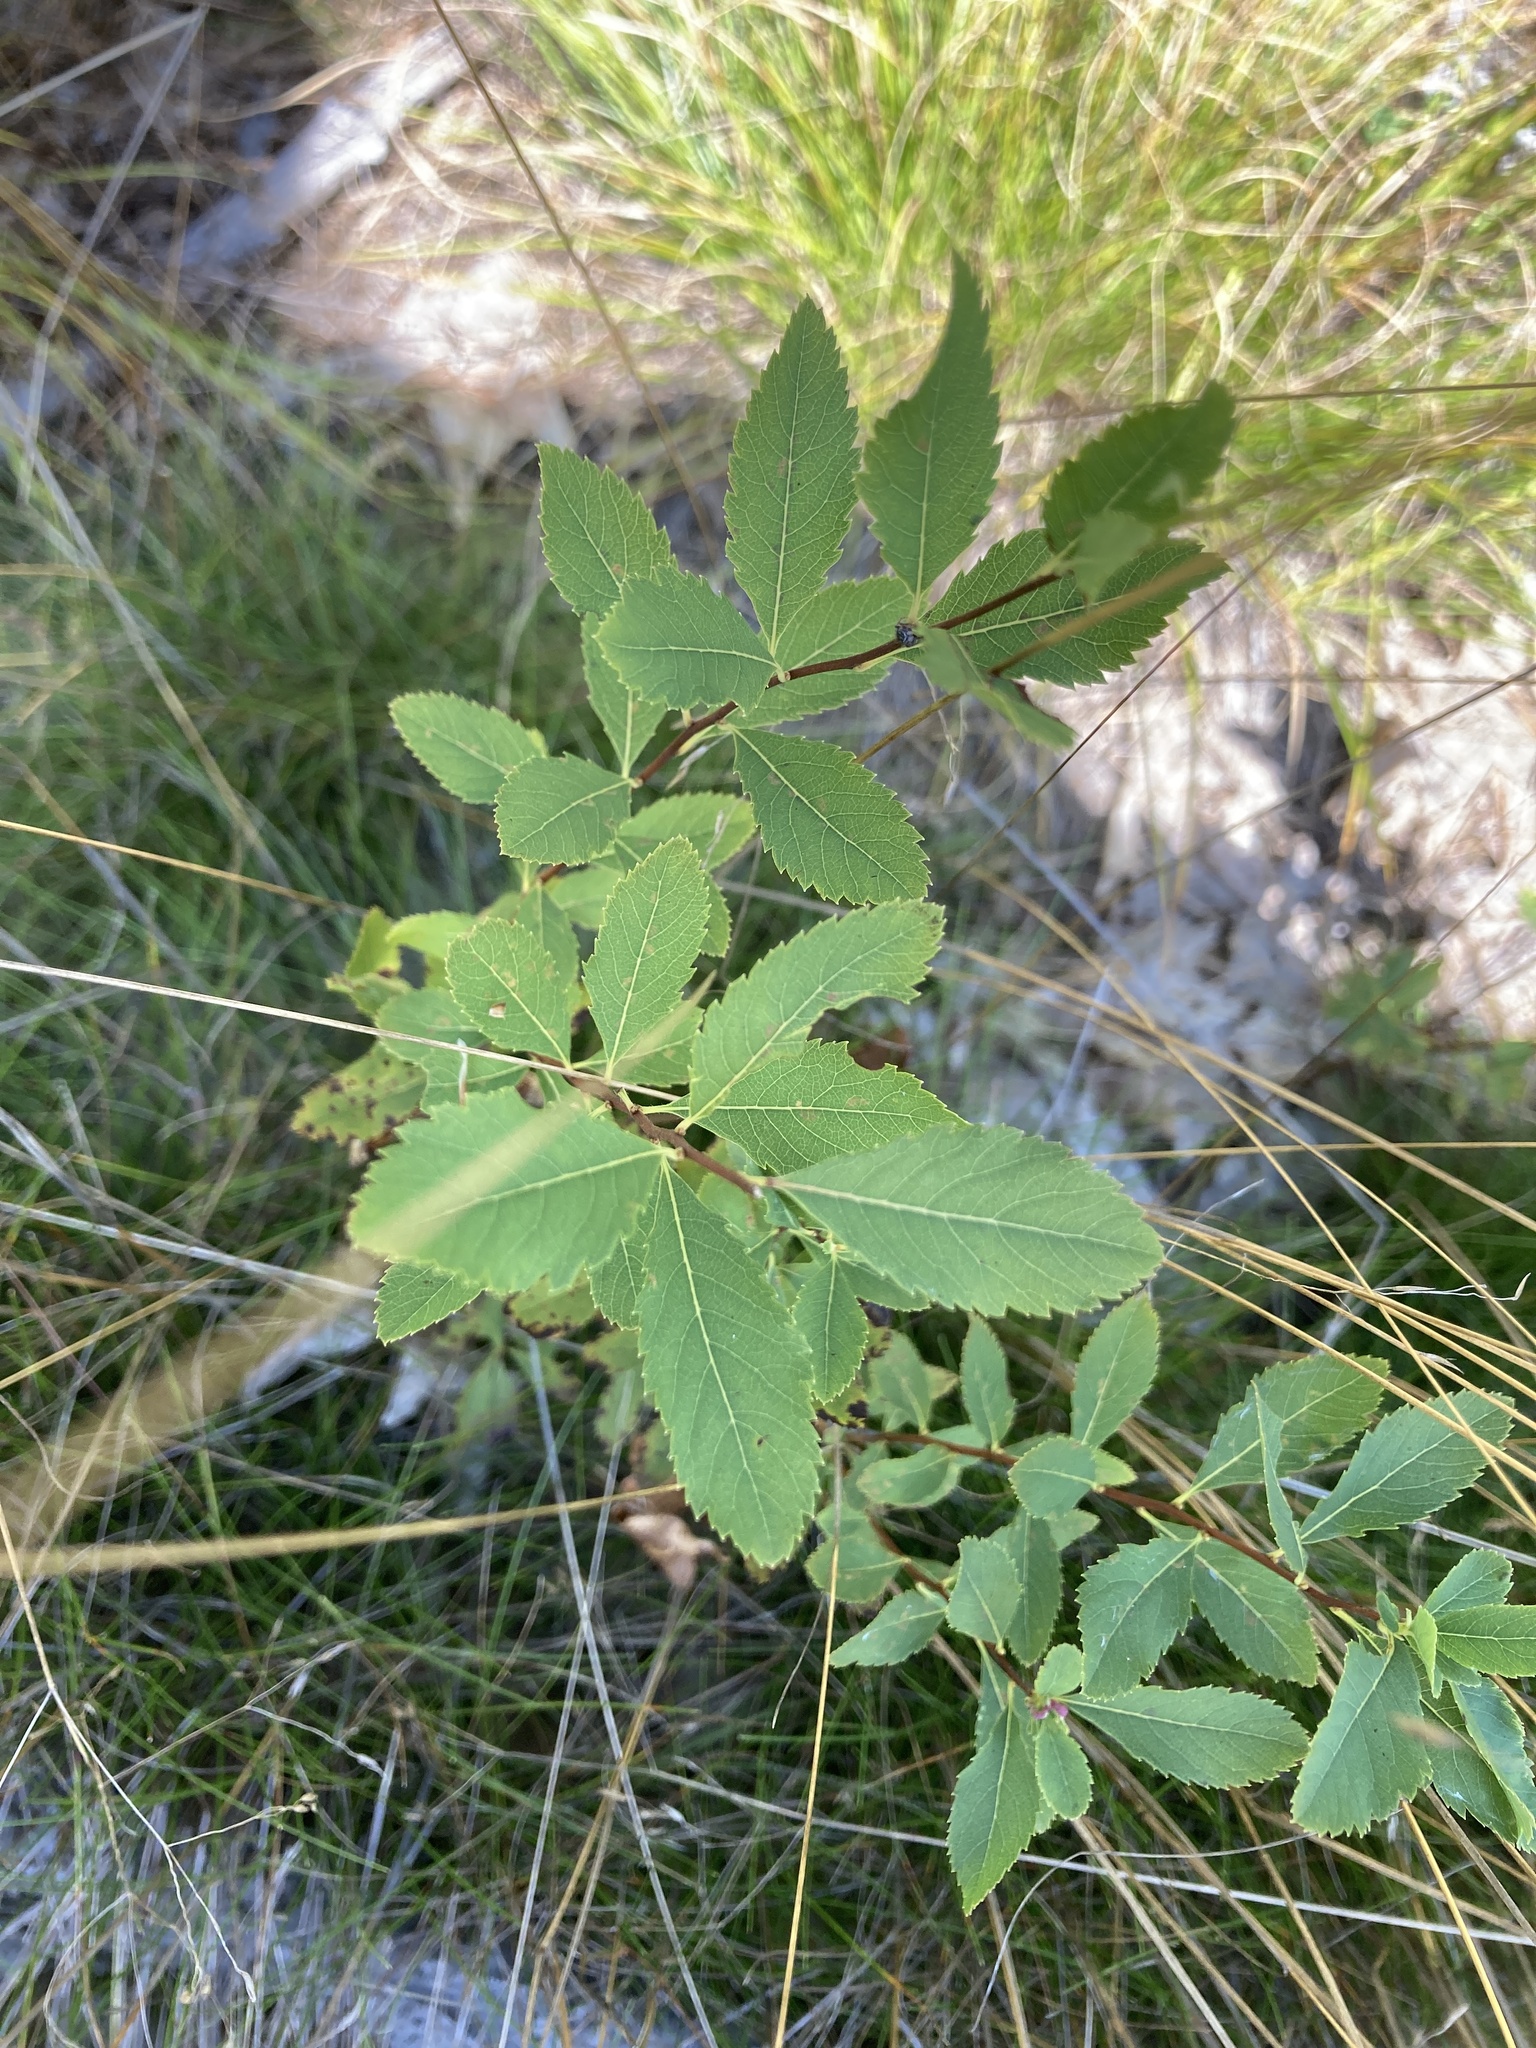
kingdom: Plantae
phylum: Tracheophyta
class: Magnoliopsida
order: Rosales
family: Rosaceae
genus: Spiraea
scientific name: Spiraea alba
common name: Pale bridewort
